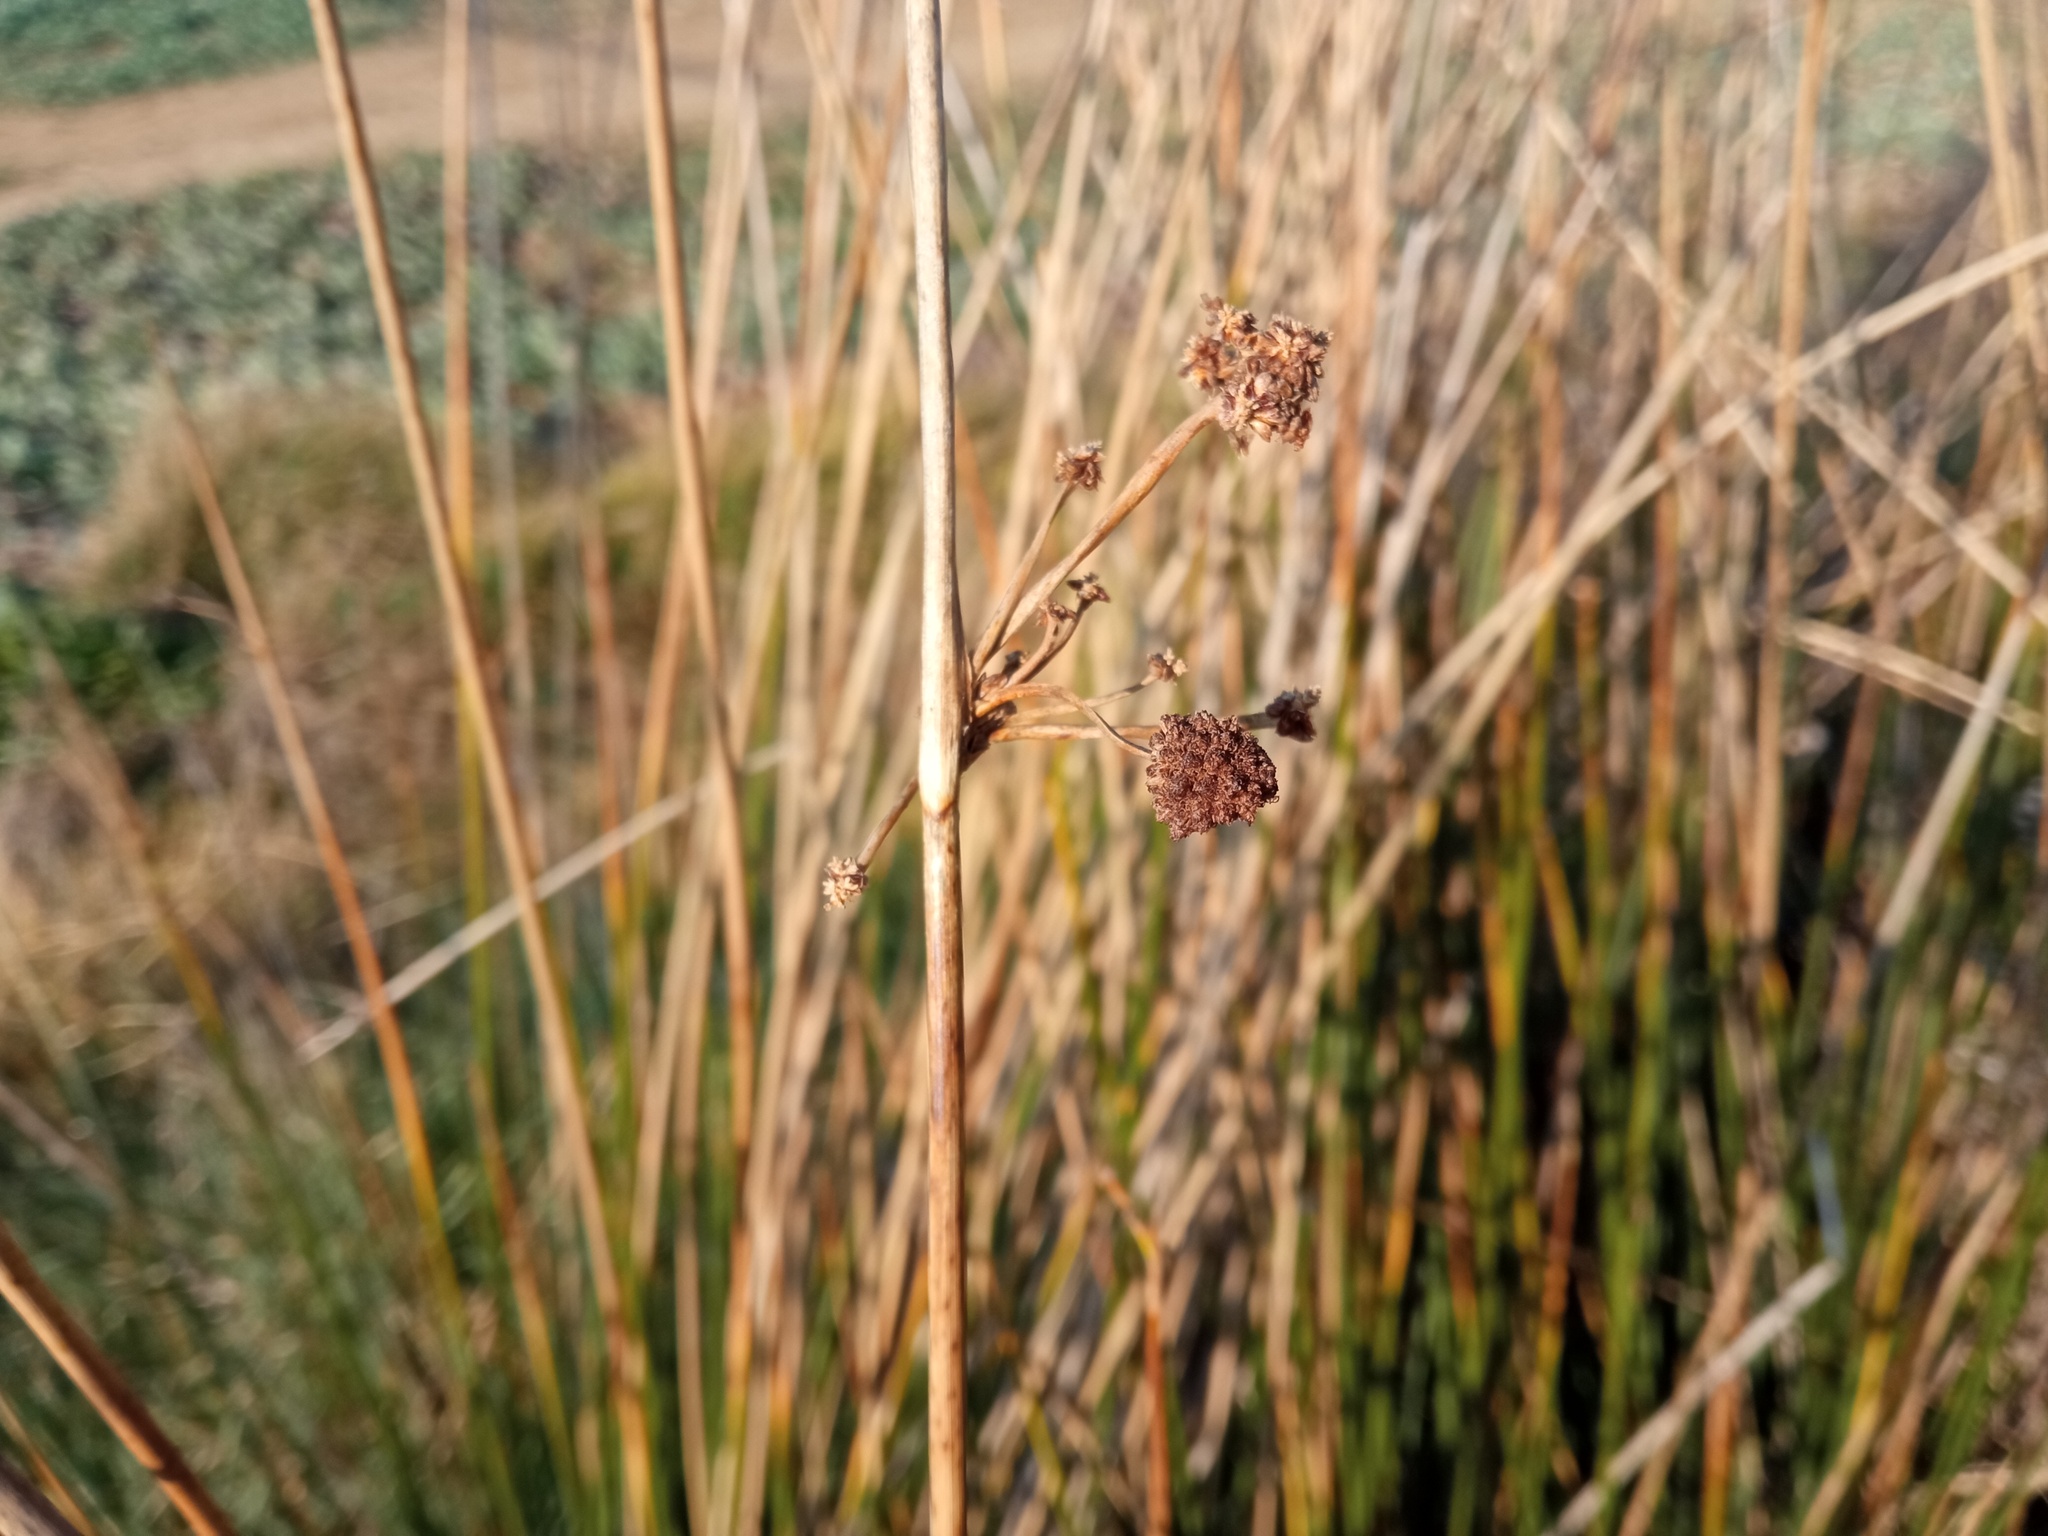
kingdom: Plantae
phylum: Tracheophyta
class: Liliopsida
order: Poales
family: Cyperaceae
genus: Scirpoides
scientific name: Scirpoides holoschoenus
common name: Round-headed club-rush
